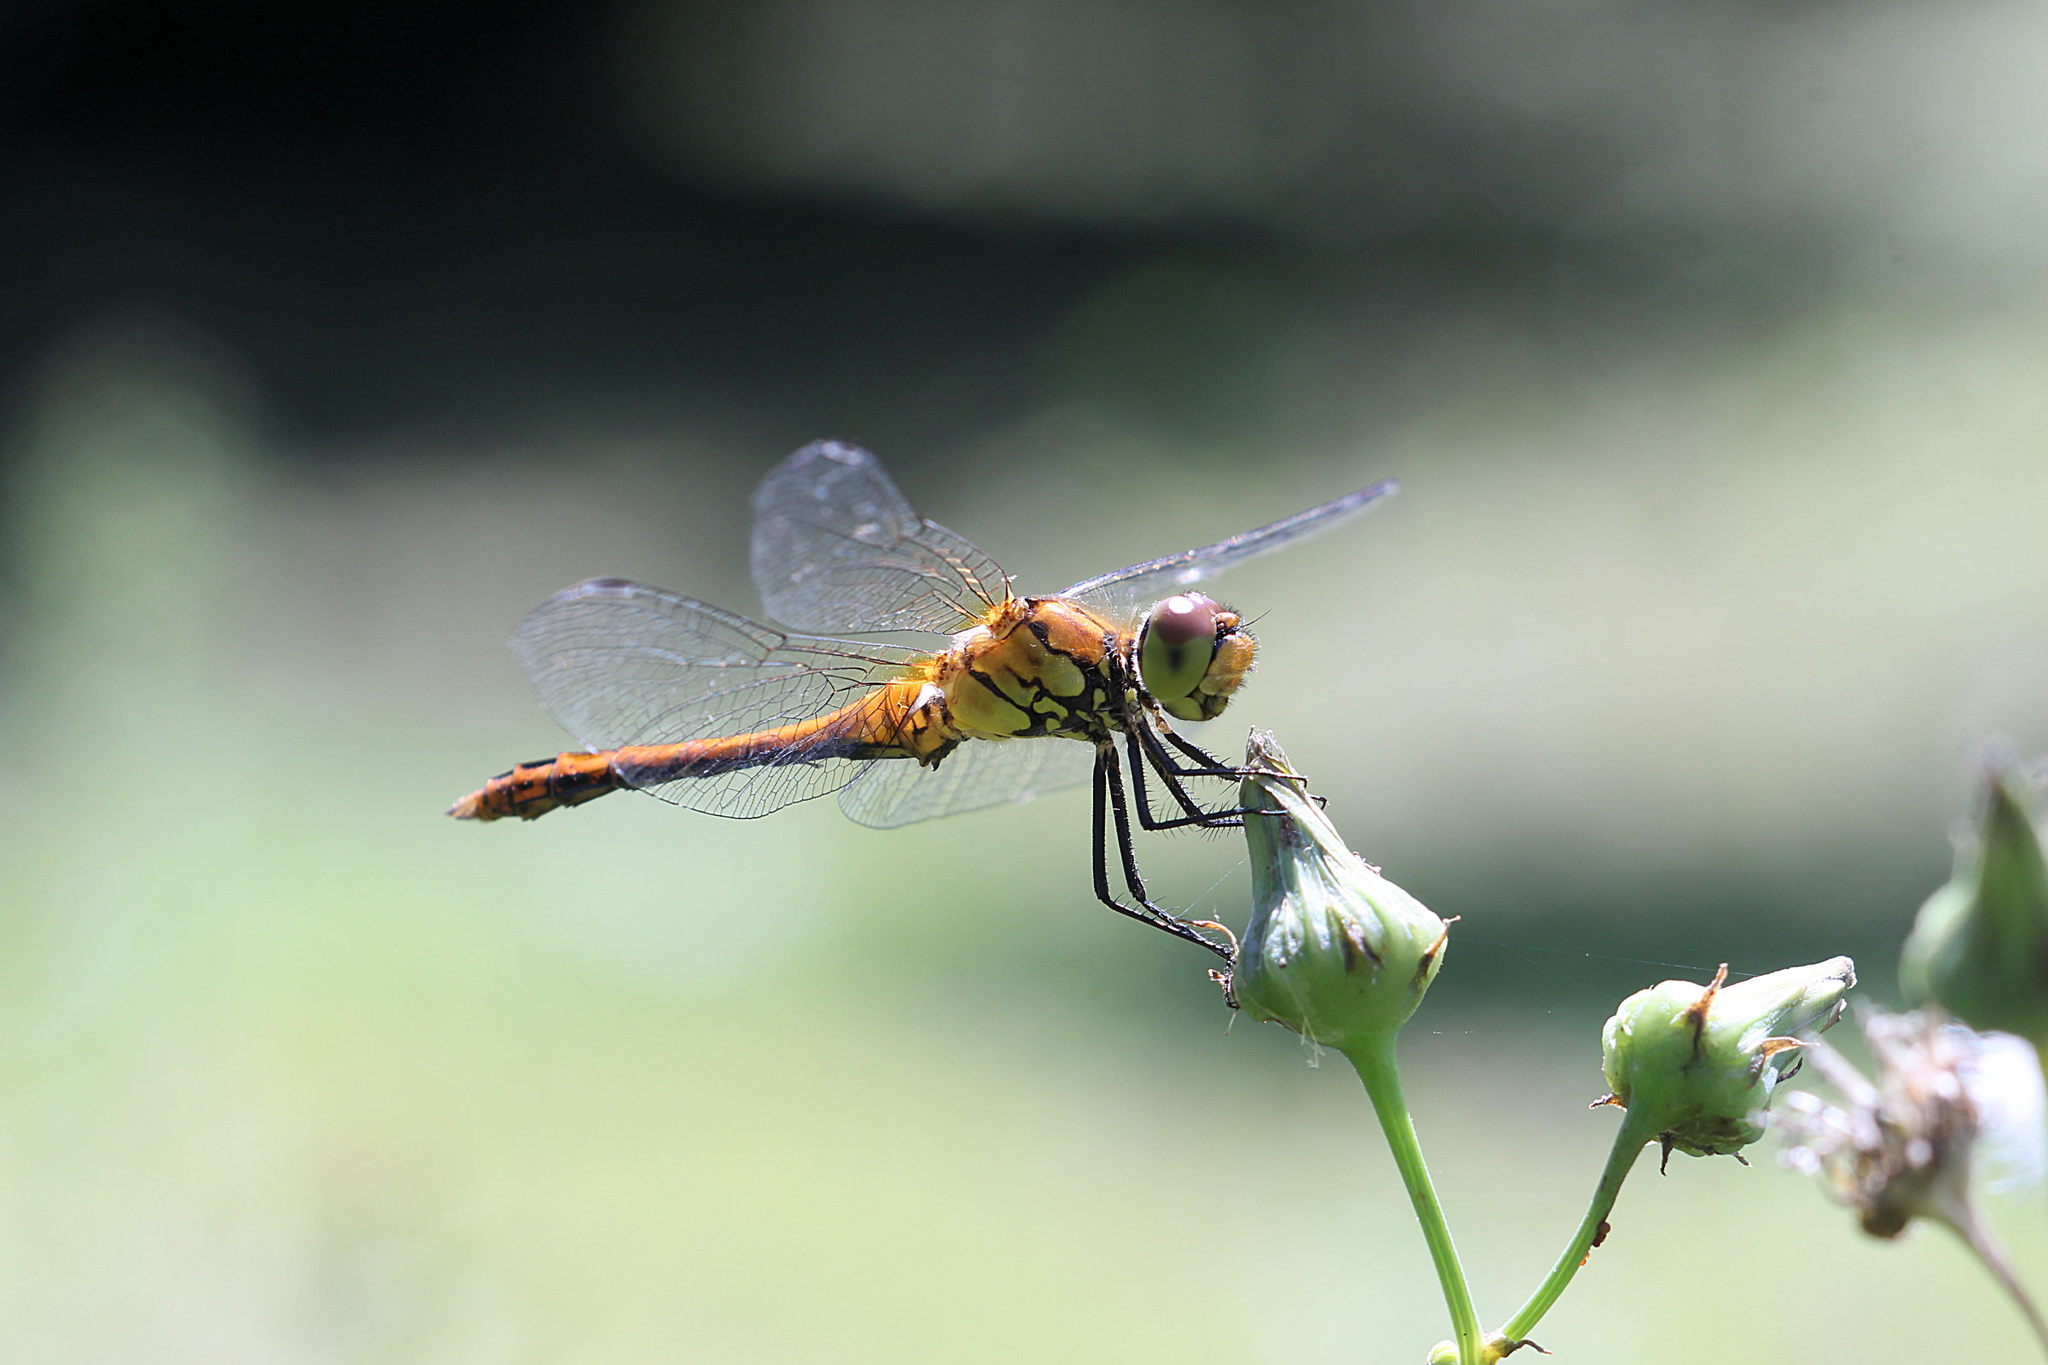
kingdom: Animalia
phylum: Arthropoda
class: Insecta
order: Odonata
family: Libellulidae
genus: Sympetrum
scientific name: Sympetrum sanguineum
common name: Ruddy darter
